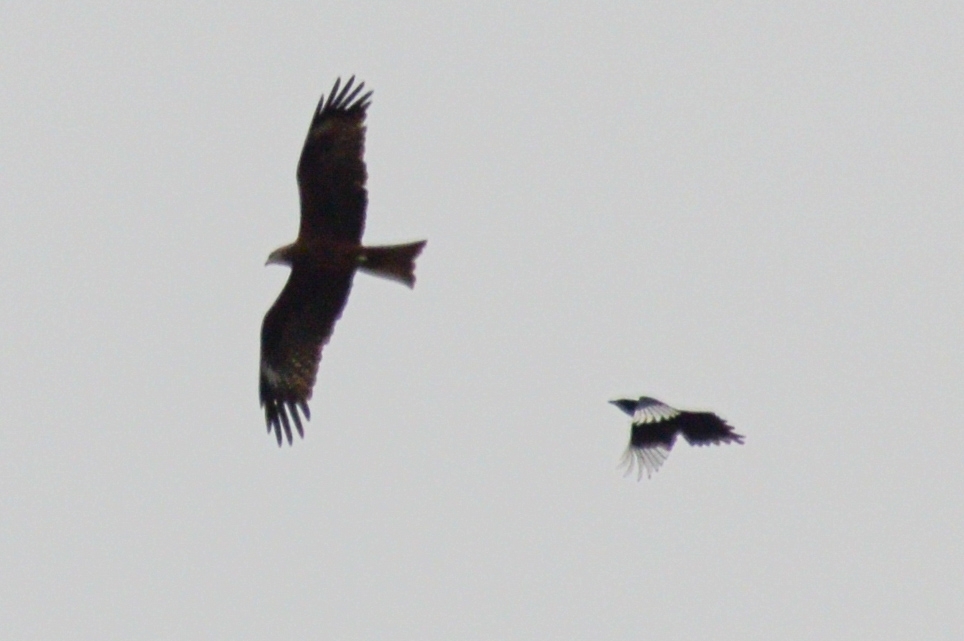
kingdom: Animalia
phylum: Chordata
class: Aves
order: Accipitriformes
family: Accipitridae
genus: Milvus
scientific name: Milvus migrans
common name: Black kite
